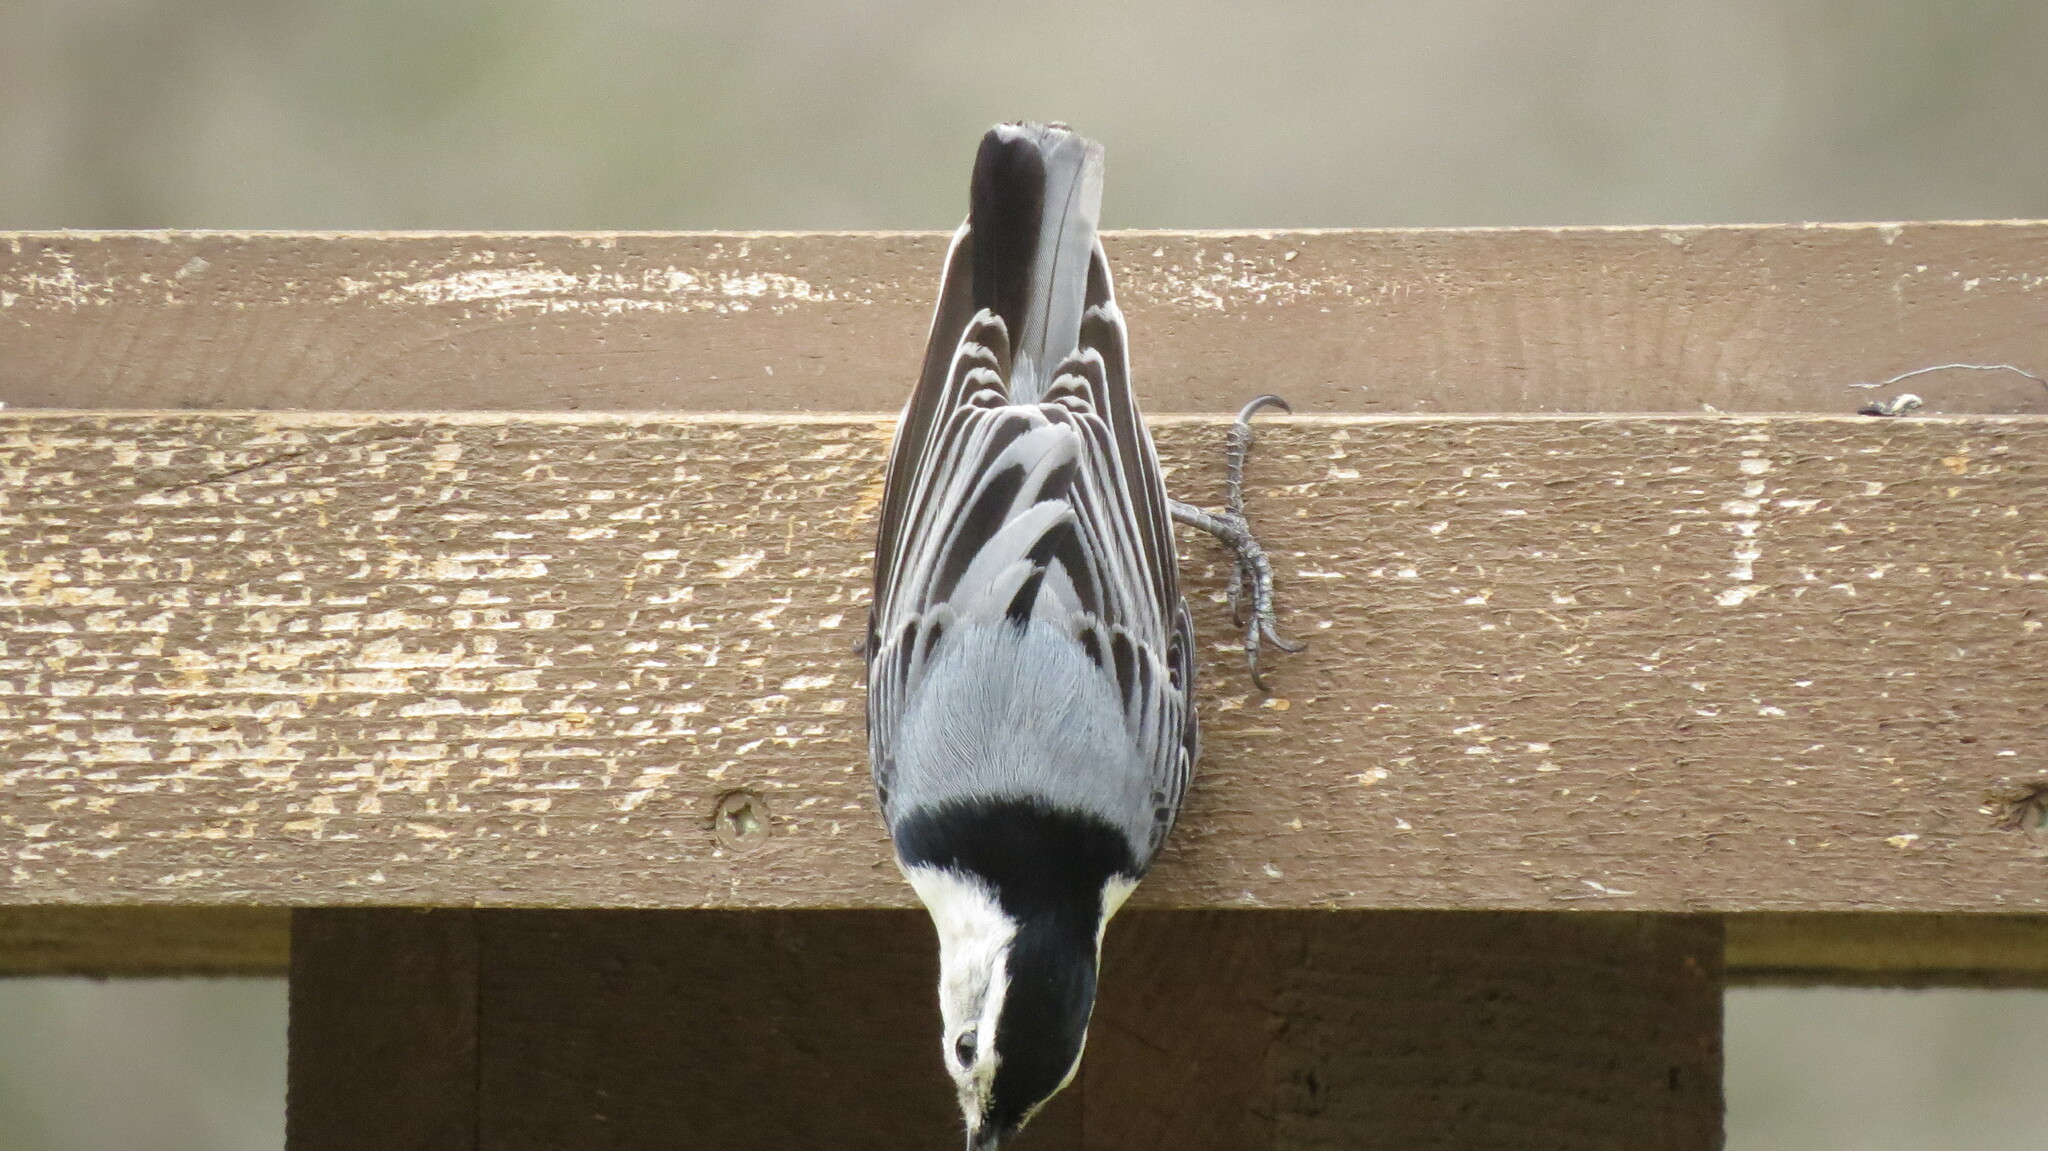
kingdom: Animalia
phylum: Chordata
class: Aves
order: Passeriformes
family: Sittidae
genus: Sitta
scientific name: Sitta carolinensis
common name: White-breasted nuthatch
